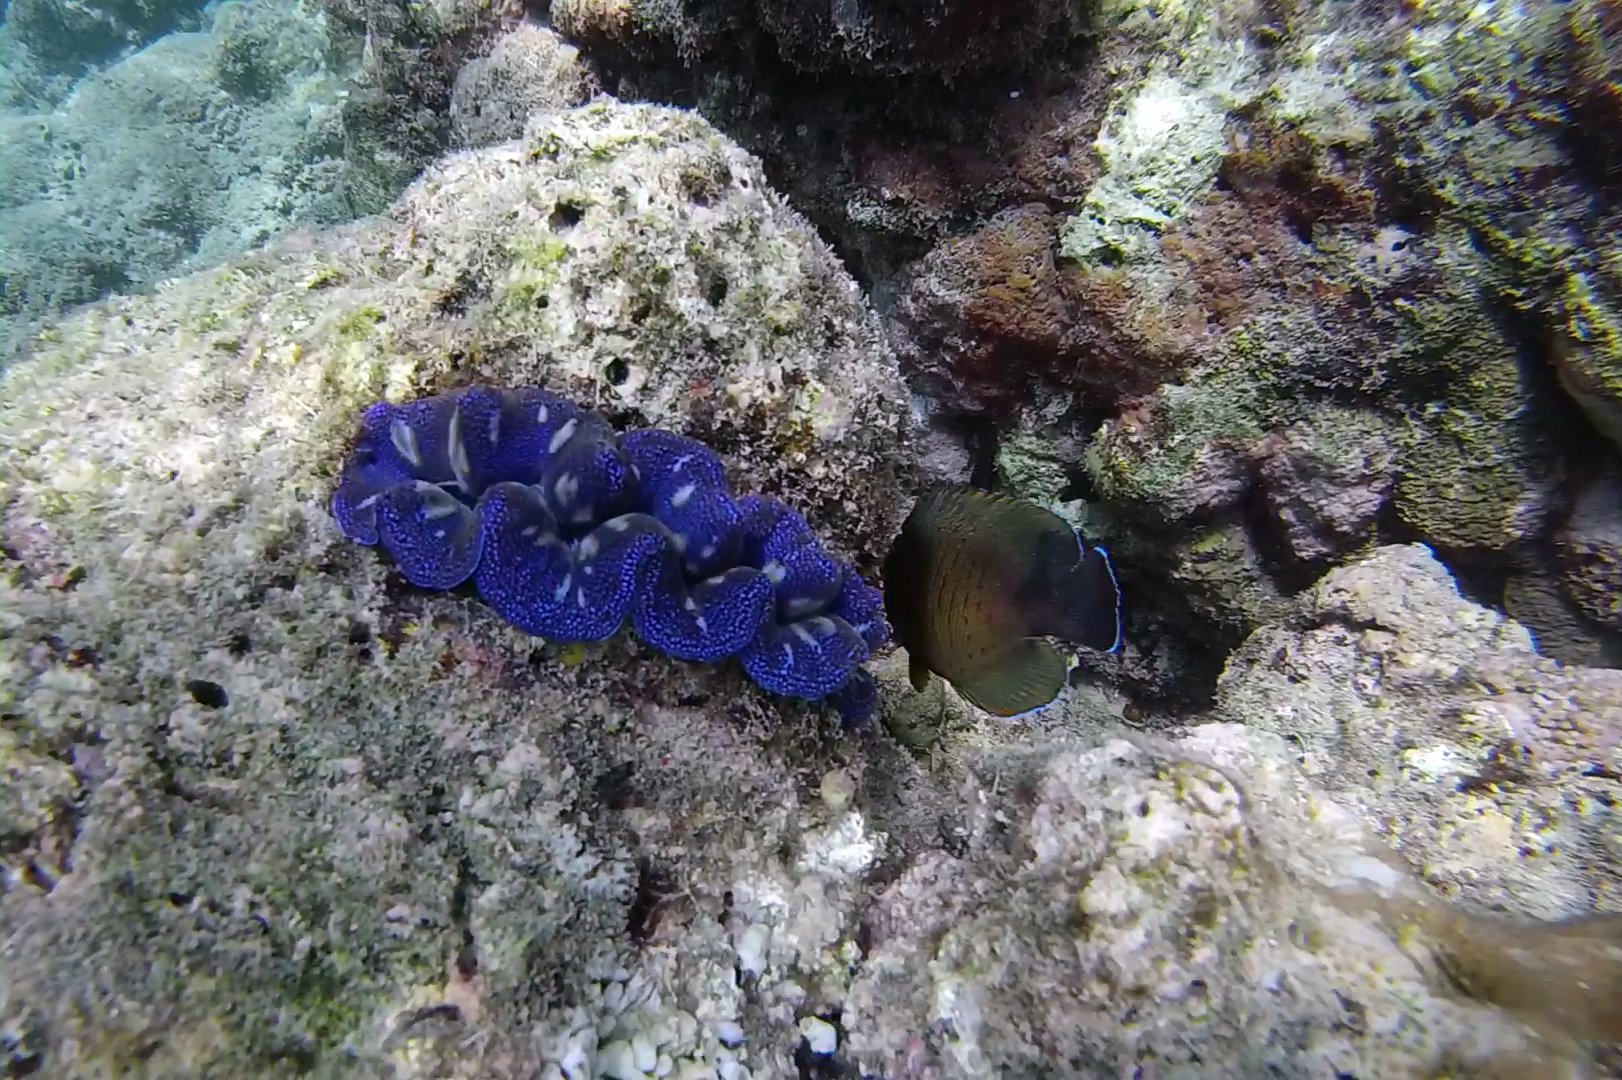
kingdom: Animalia
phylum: Mollusca
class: Bivalvia
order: Cardiida
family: Cardiidae
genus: Tridacna
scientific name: Tridacna crocea
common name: Boring clam
